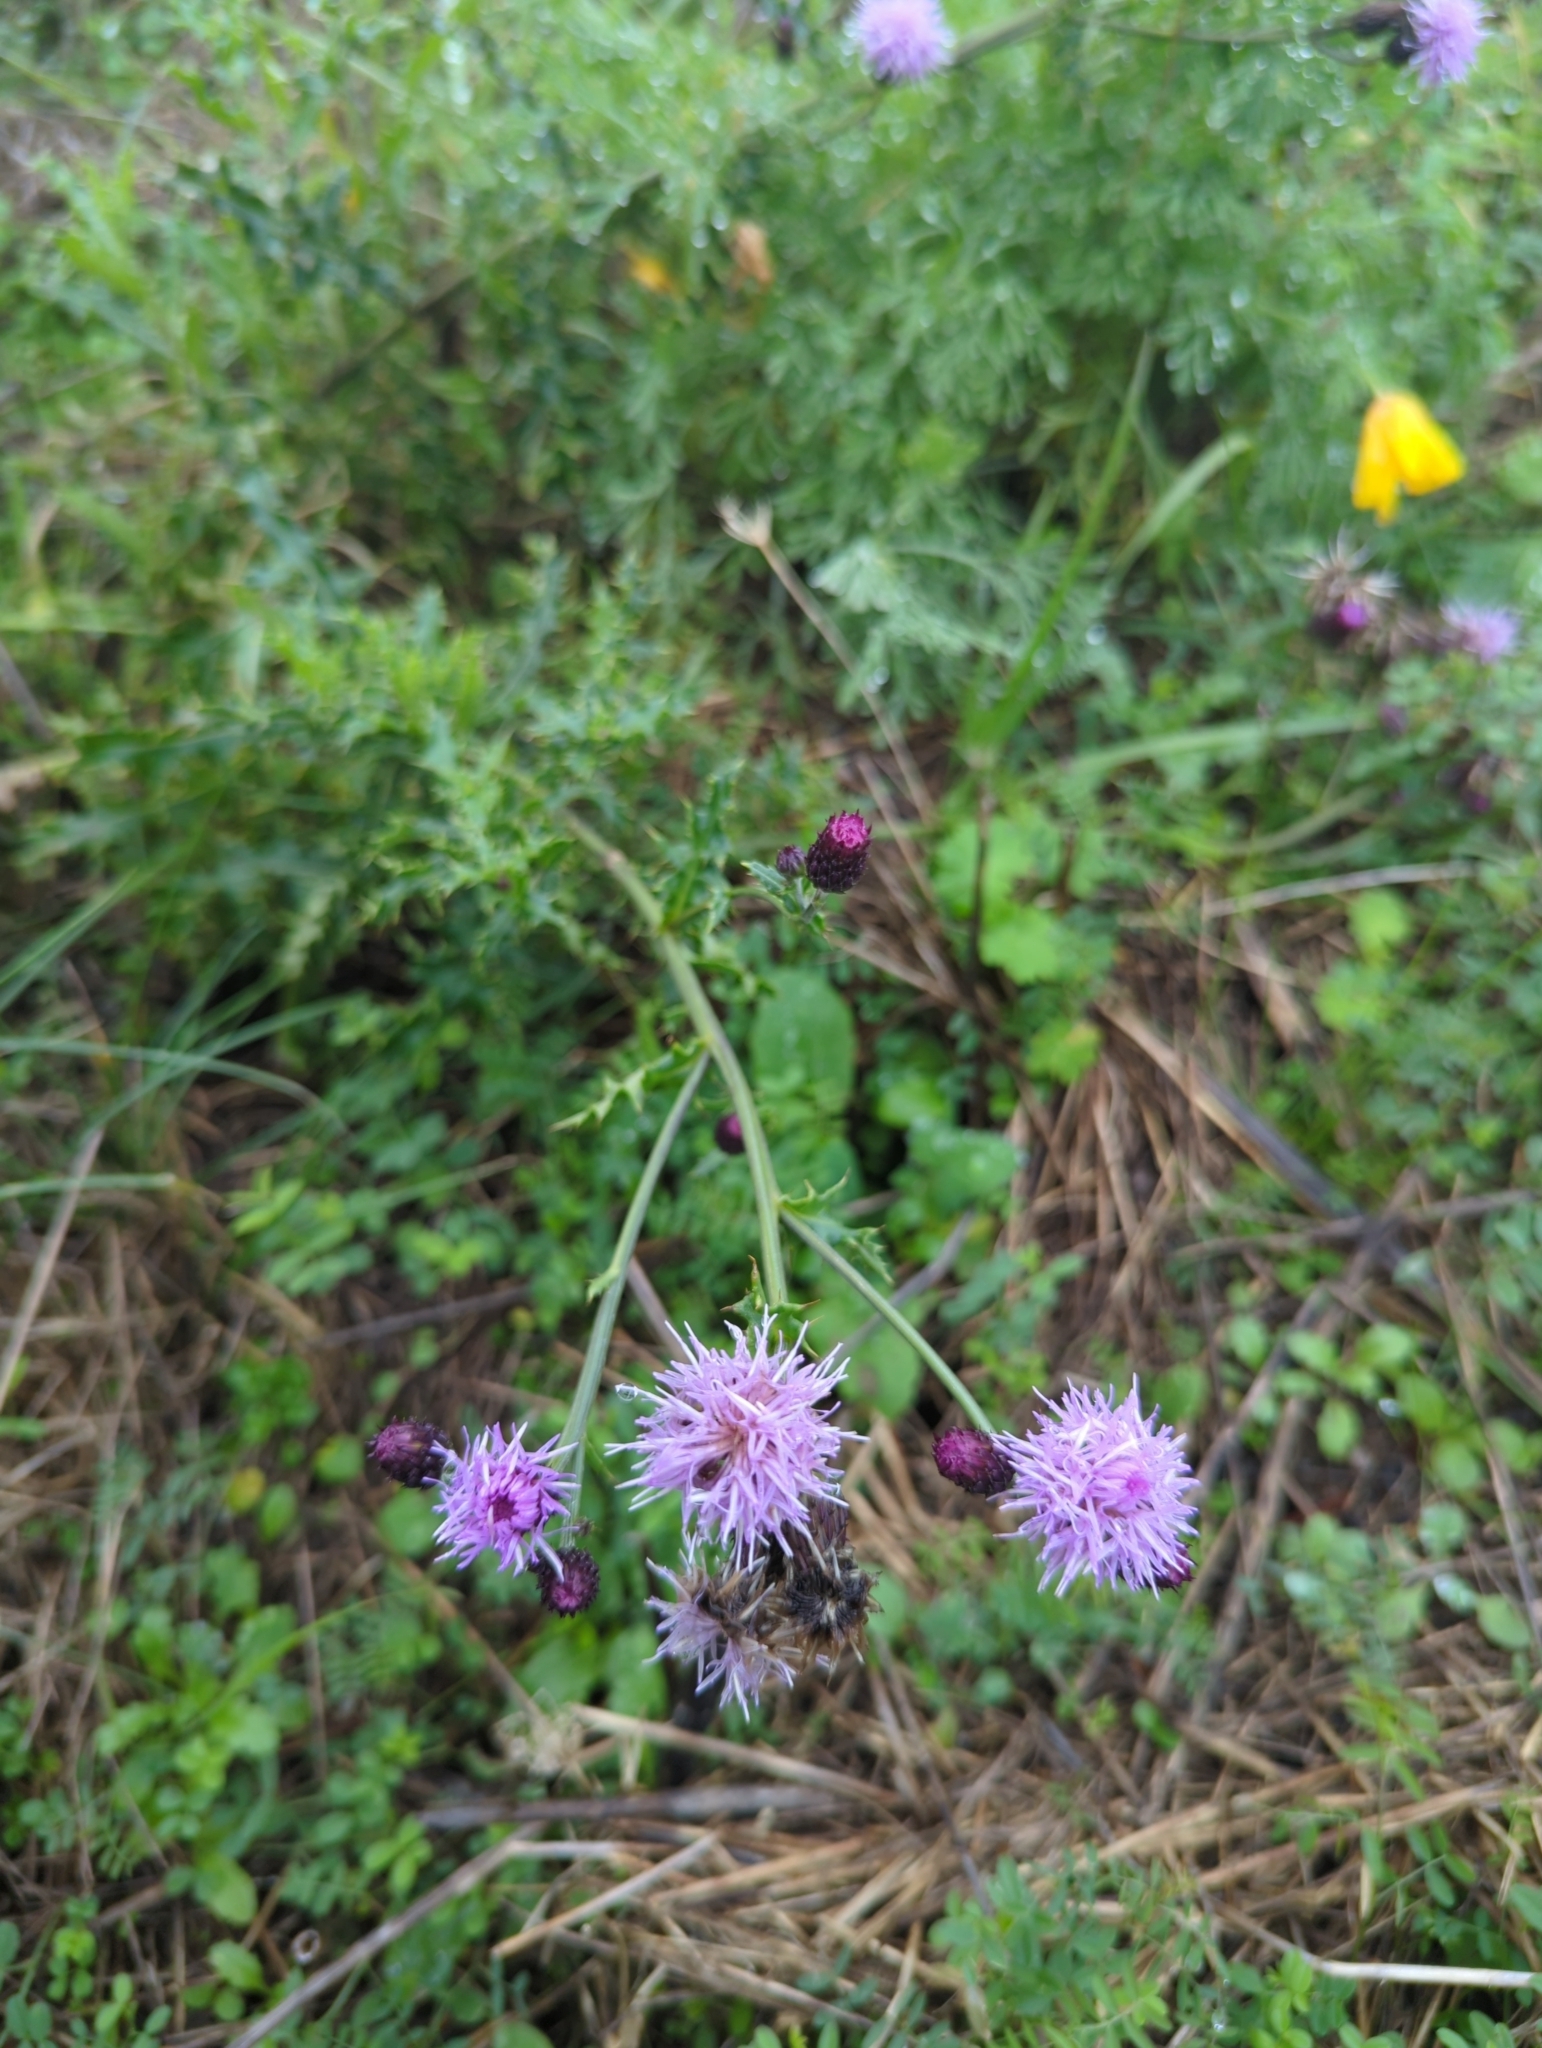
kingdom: Plantae
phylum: Tracheophyta
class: Magnoliopsida
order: Asterales
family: Asteraceae
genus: Cirsium
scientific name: Cirsium arvense
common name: Creeping thistle
